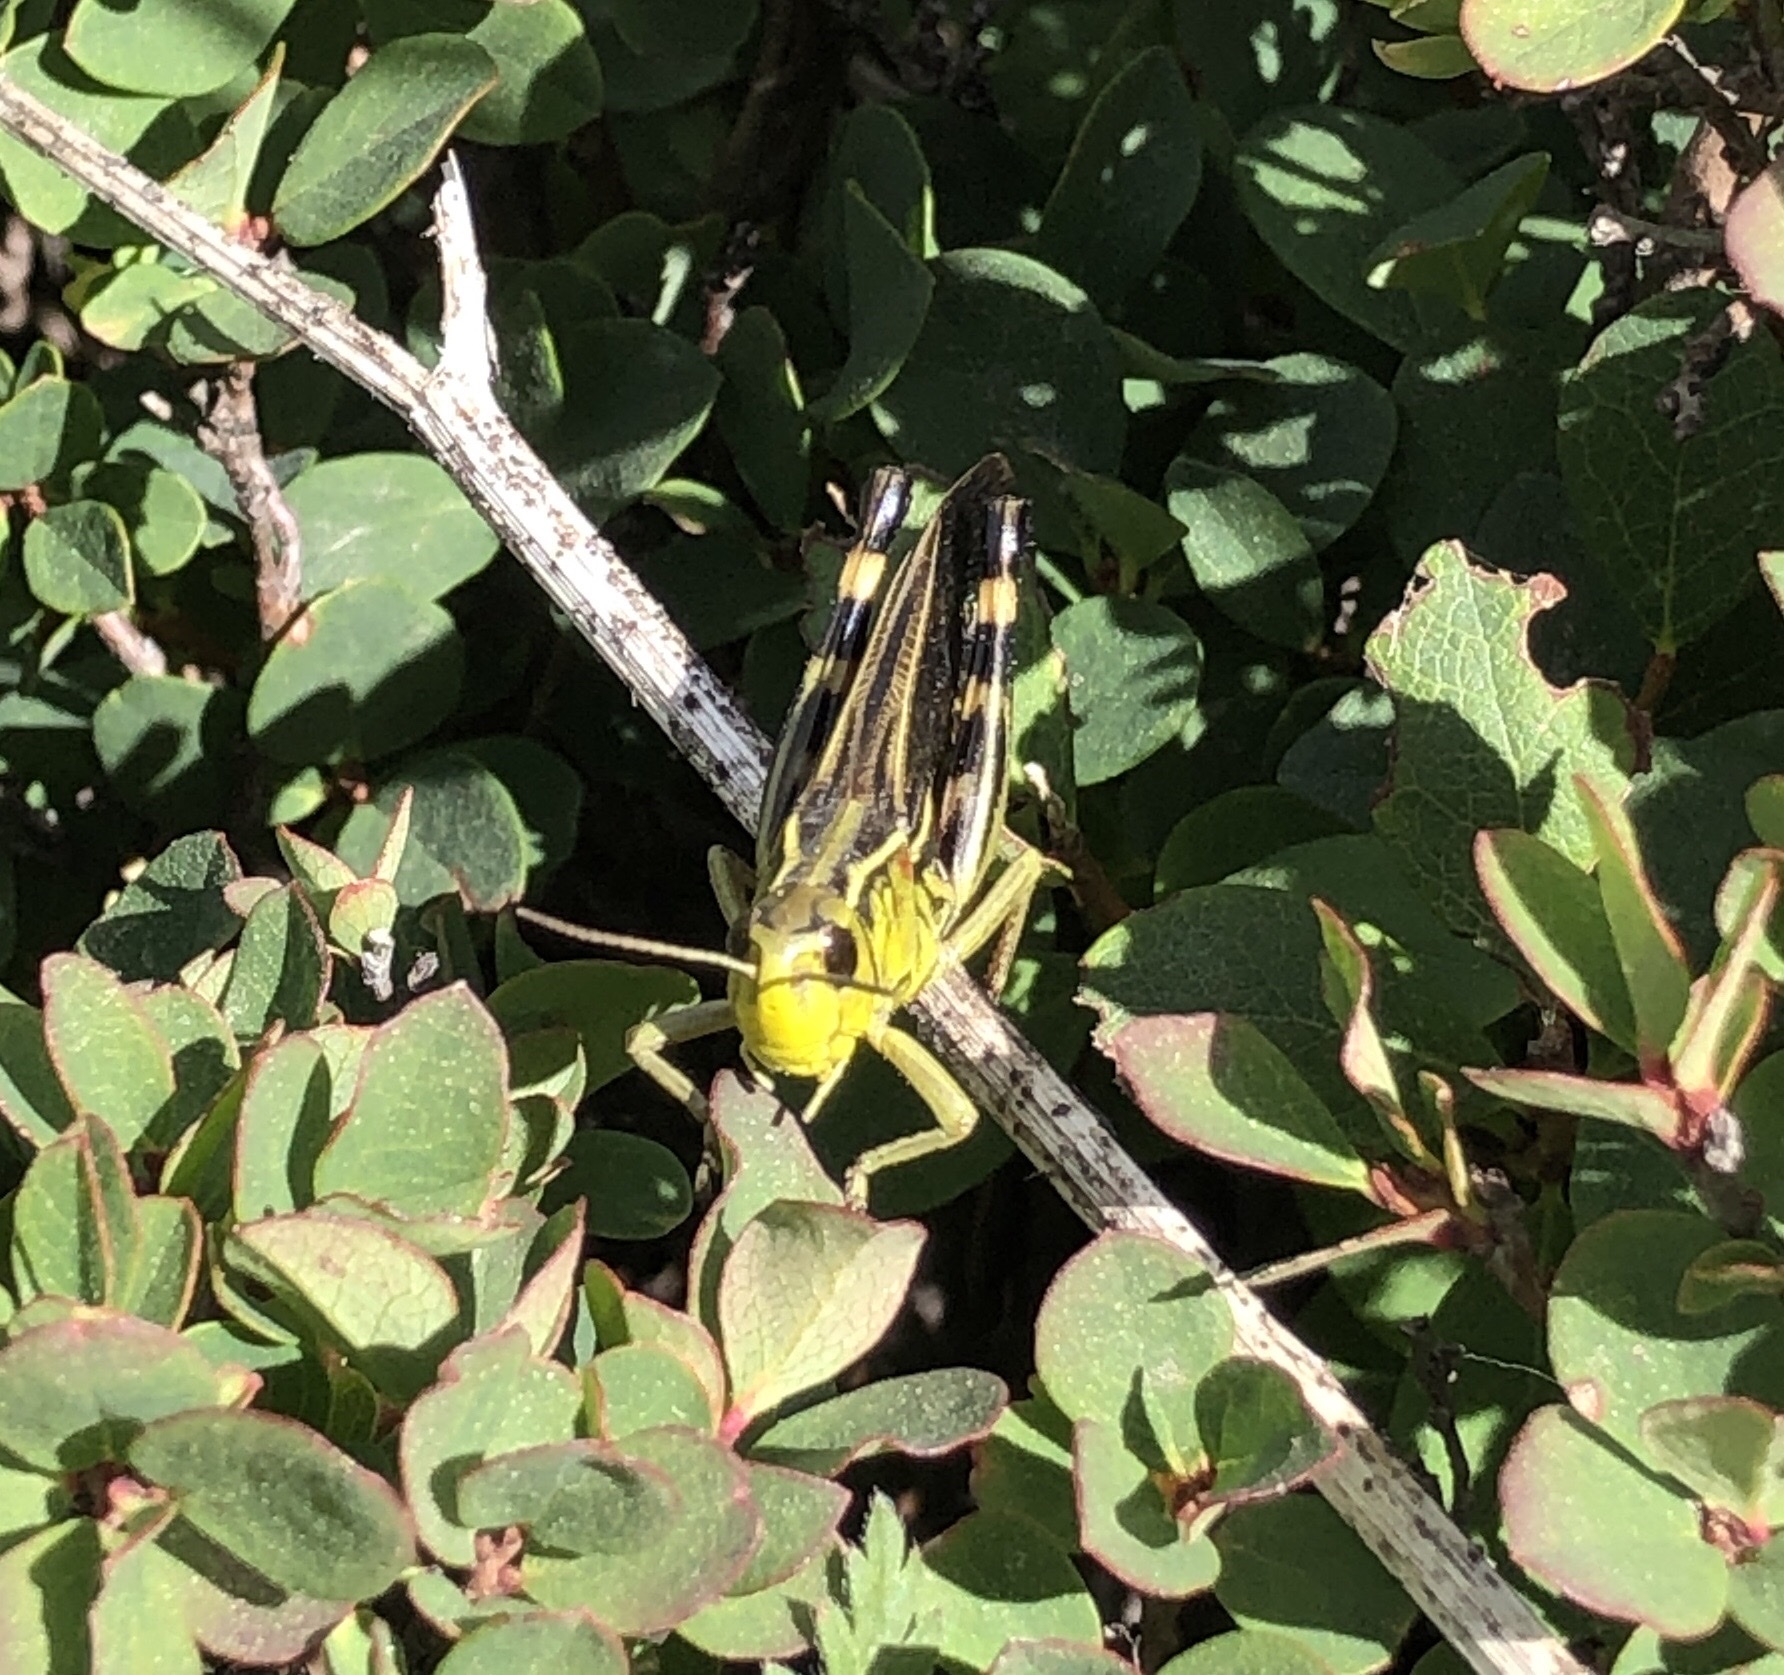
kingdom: Animalia
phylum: Arthropoda
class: Insecta
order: Orthoptera
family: Acrididae
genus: Arcyptera
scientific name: Arcyptera fusca
